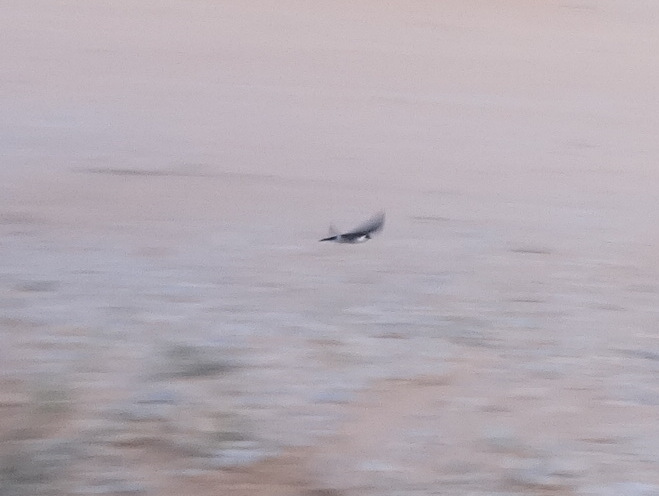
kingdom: Animalia
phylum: Chordata
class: Aves
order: Passeriformes
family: Hirundinidae
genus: Tachycineta
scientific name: Tachycineta thalassina
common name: Violet-green swallow
